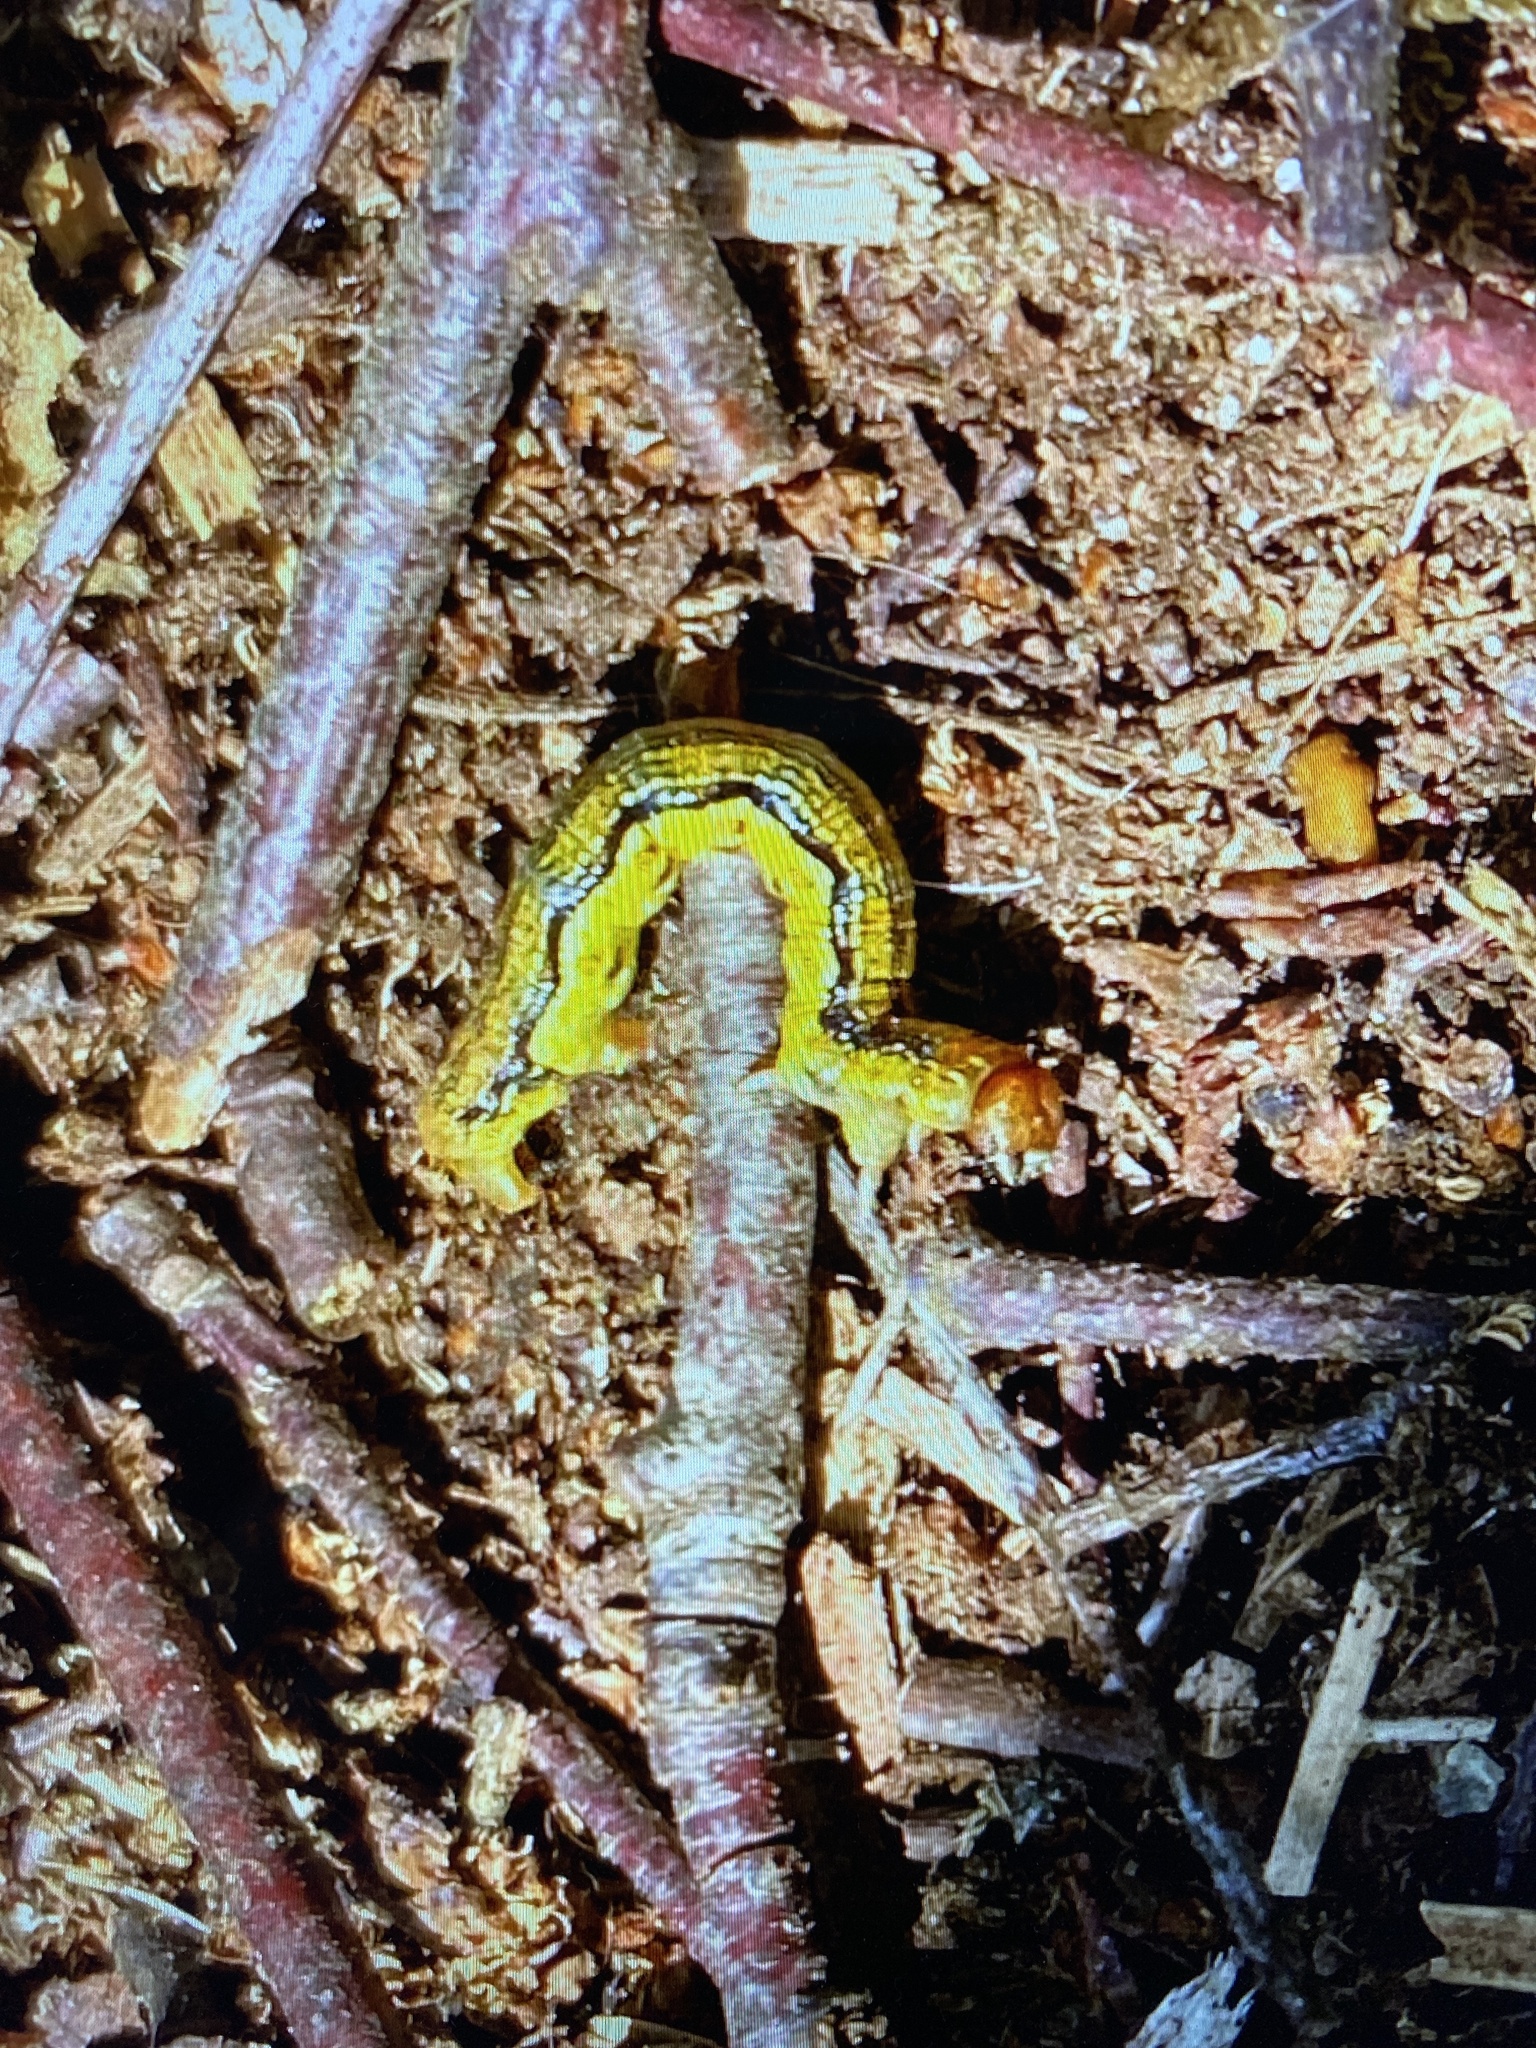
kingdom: Animalia
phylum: Arthropoda
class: Insecta
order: Lepidoptera
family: Geometridae
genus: Erannis
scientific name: Erannis defoliaria
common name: Mottled umber
